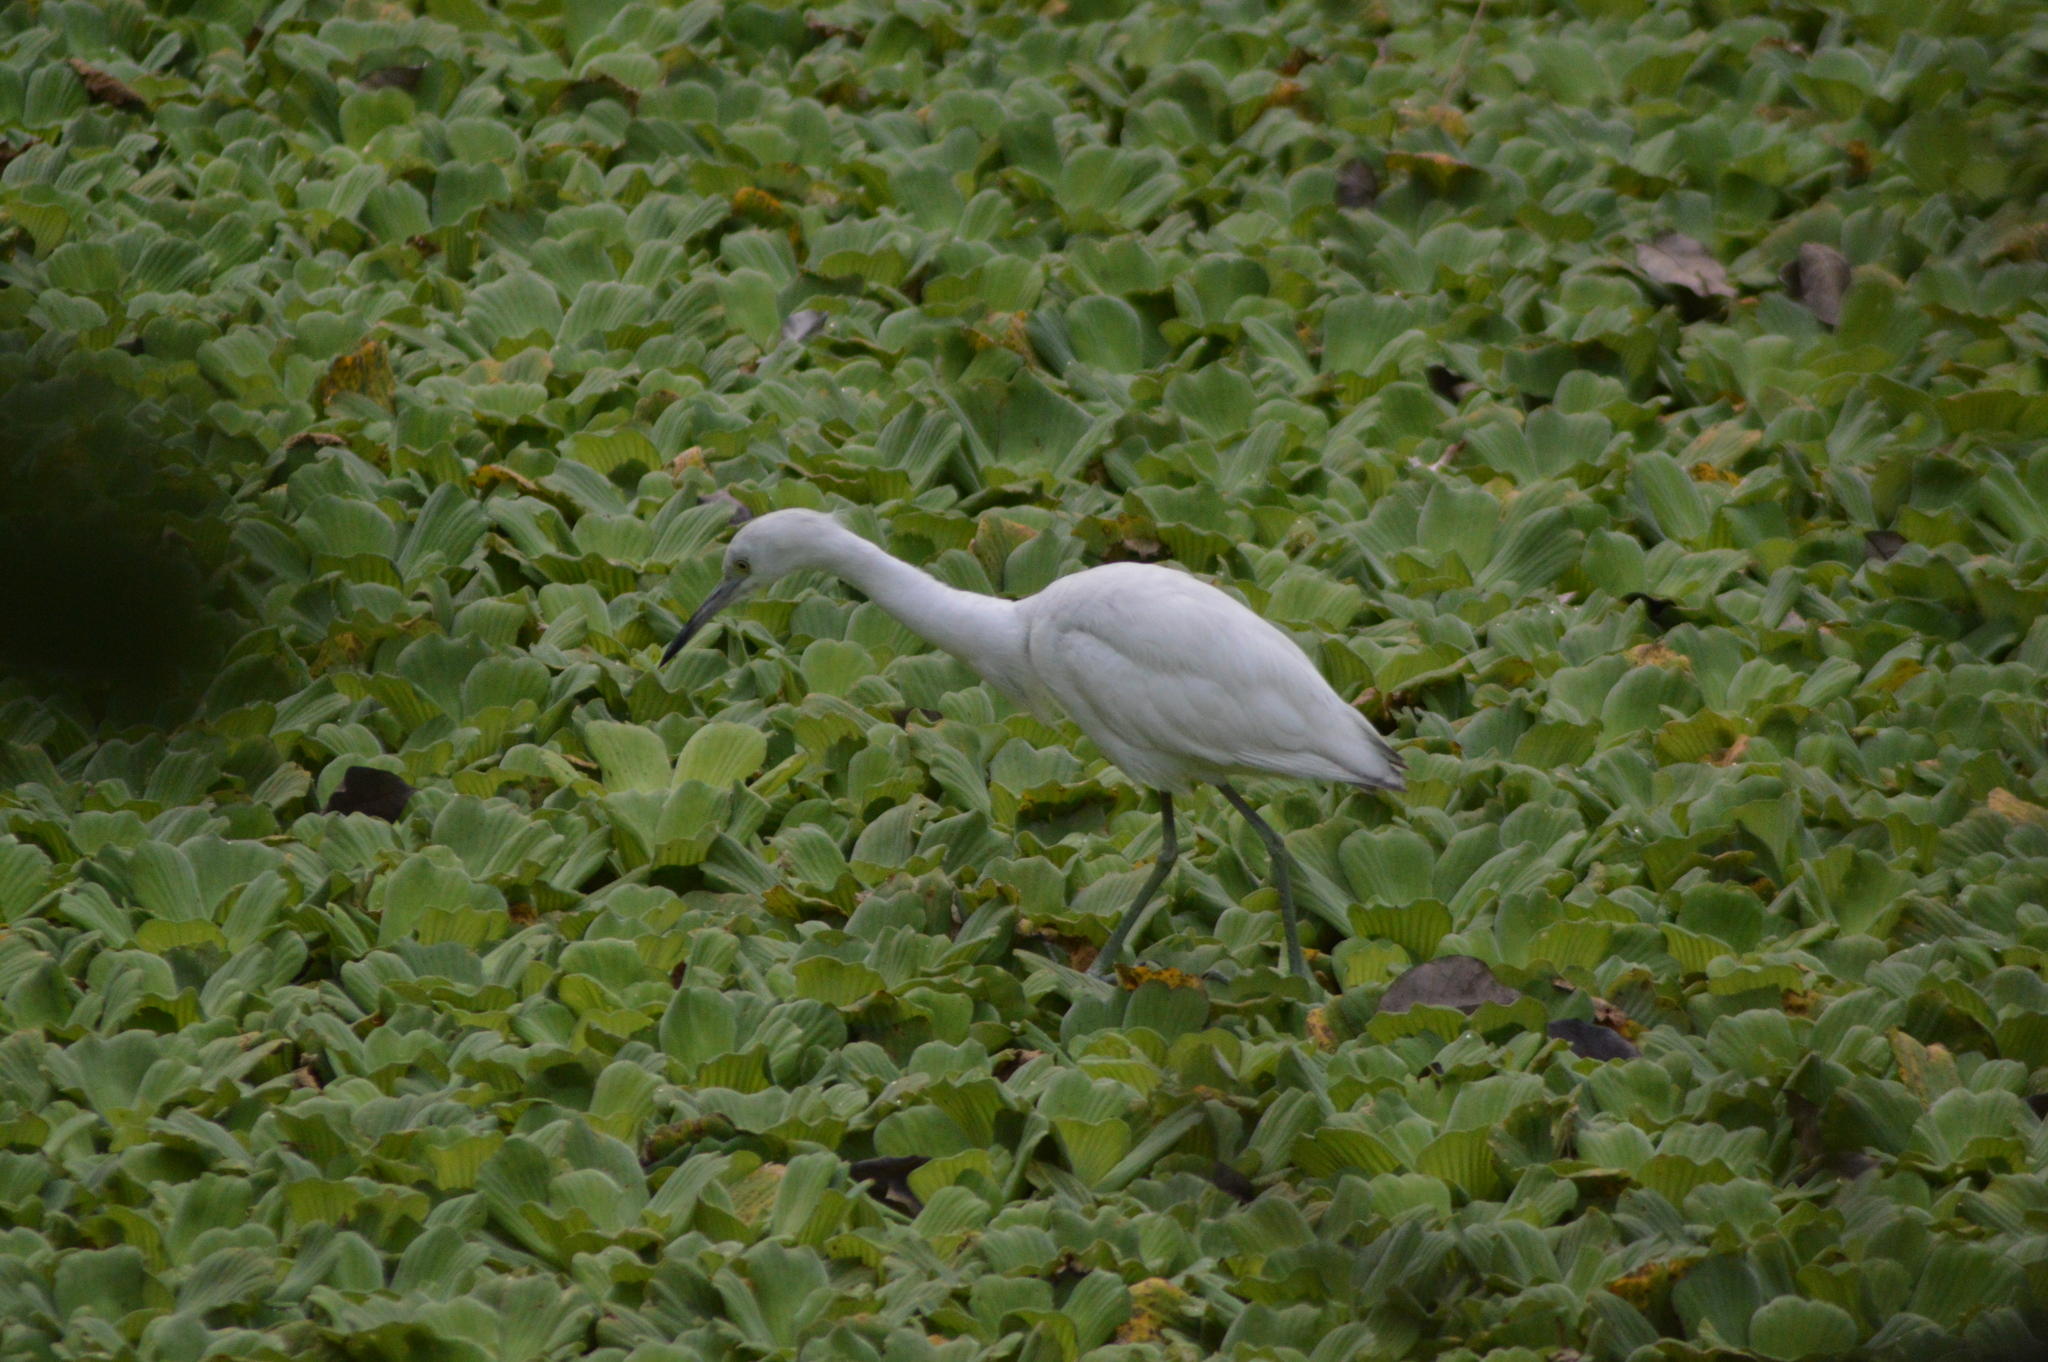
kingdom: Animalia
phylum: Chordata
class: Aves
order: Pelecaniformes
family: Ardeidae
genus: Egretta
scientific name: Egretta caerulea
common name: Little blue heron
